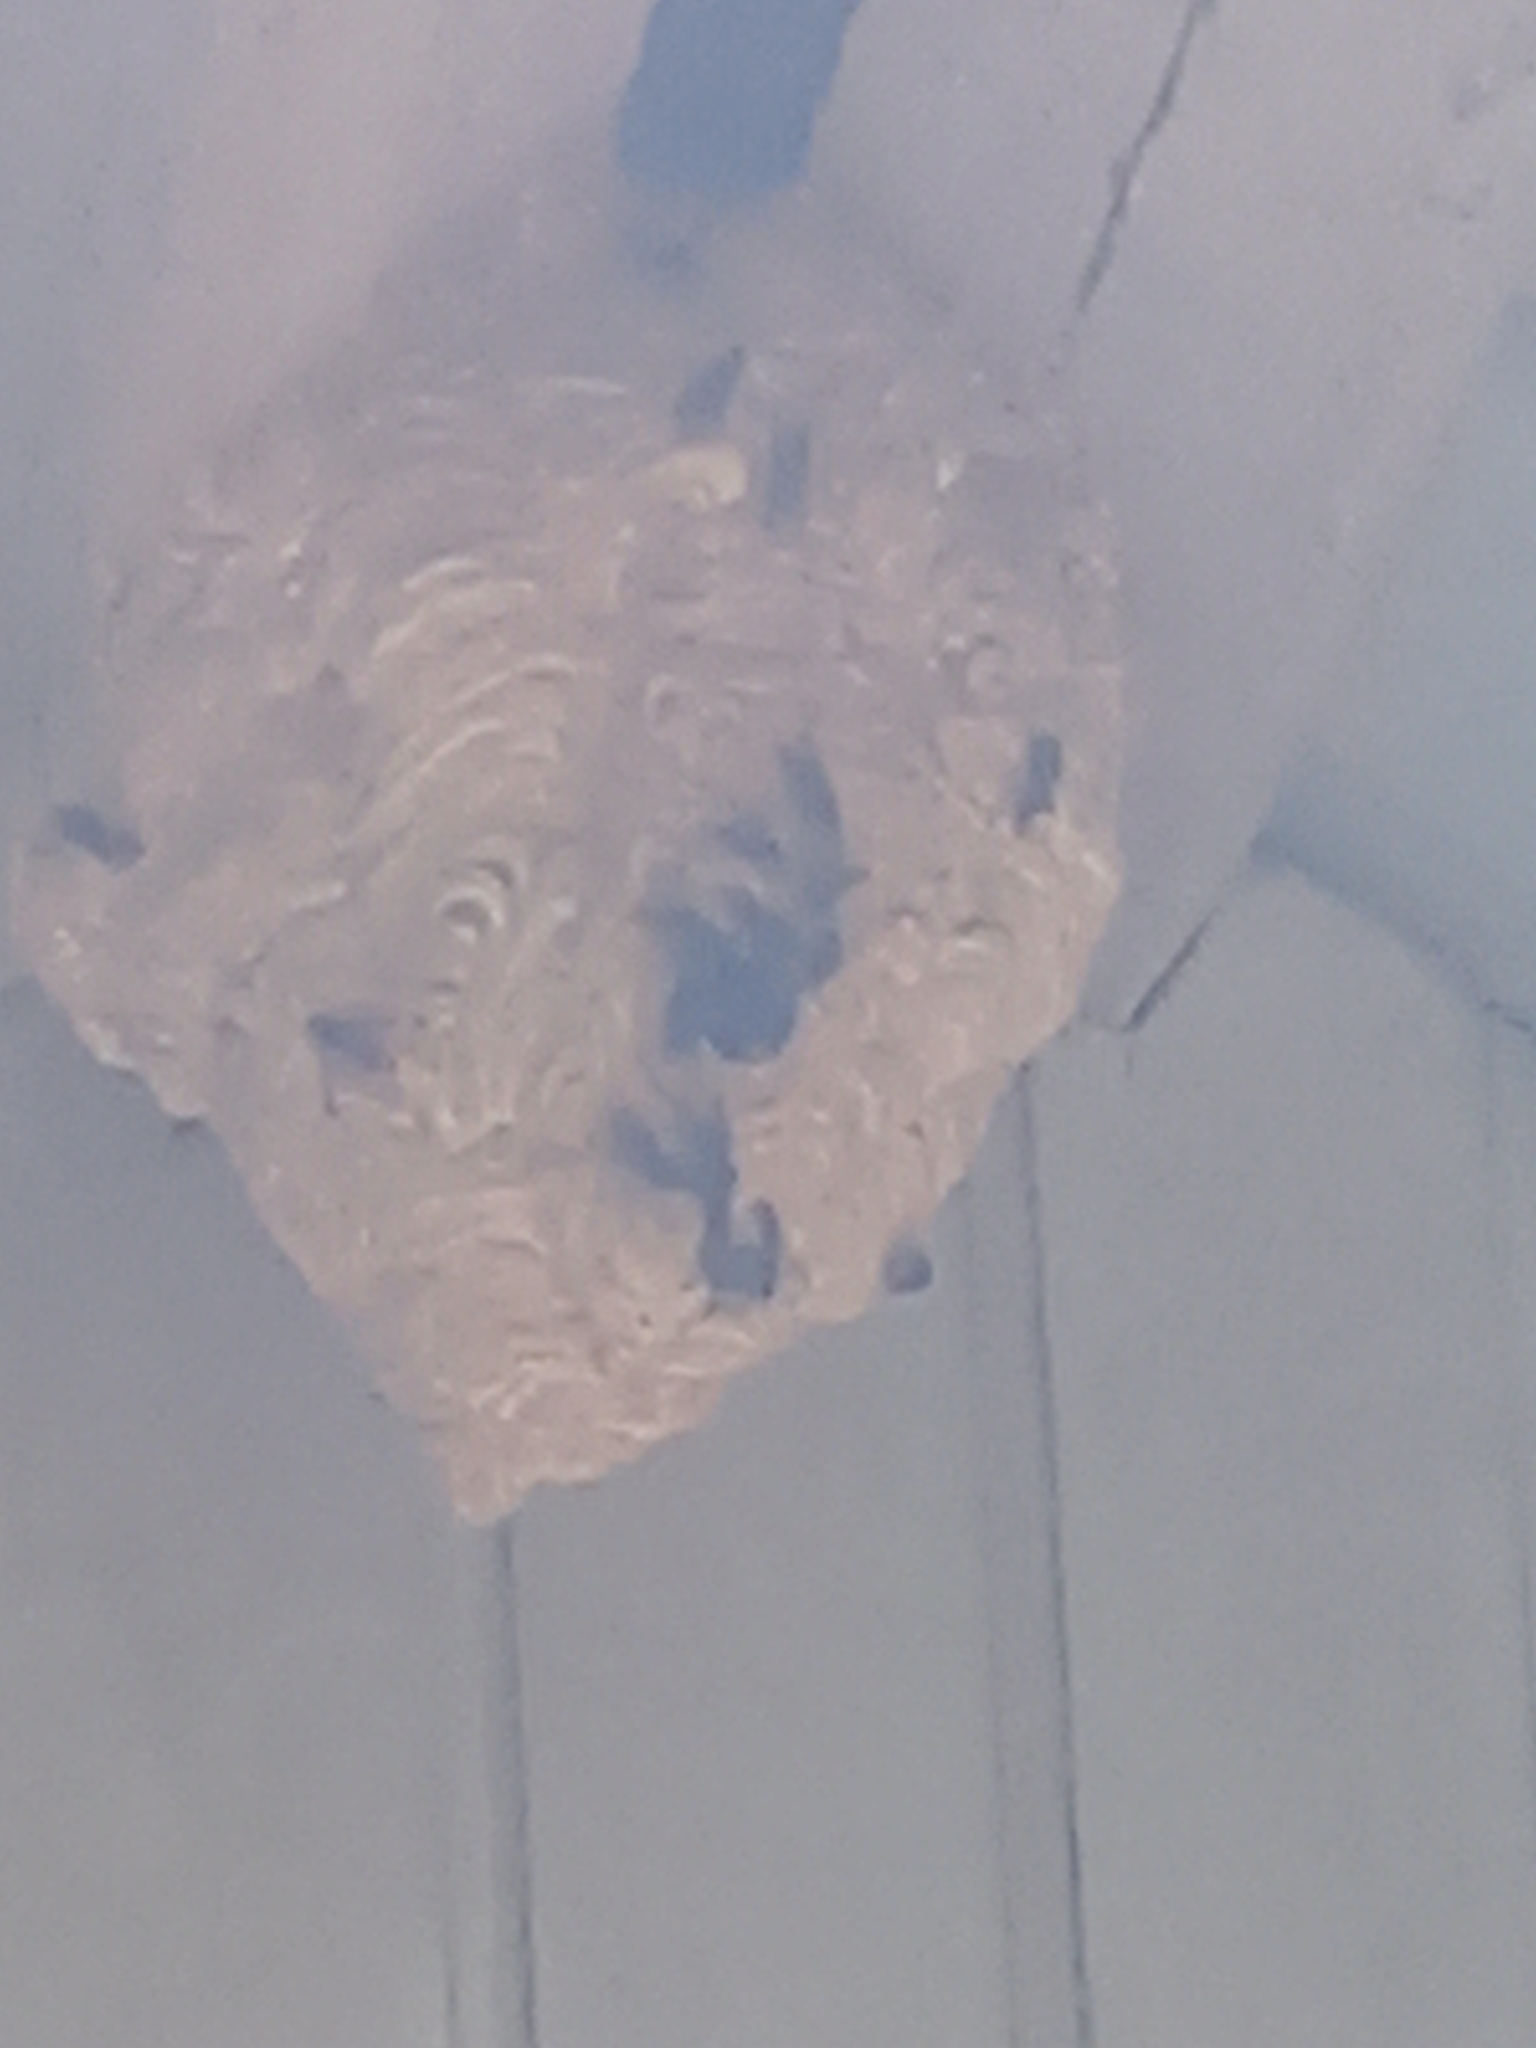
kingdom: Animalia
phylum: Arthropoda
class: Insecta
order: Hymenoptera
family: Vespidae
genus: Vespa
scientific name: Vespa velutina
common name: Asian hornet
